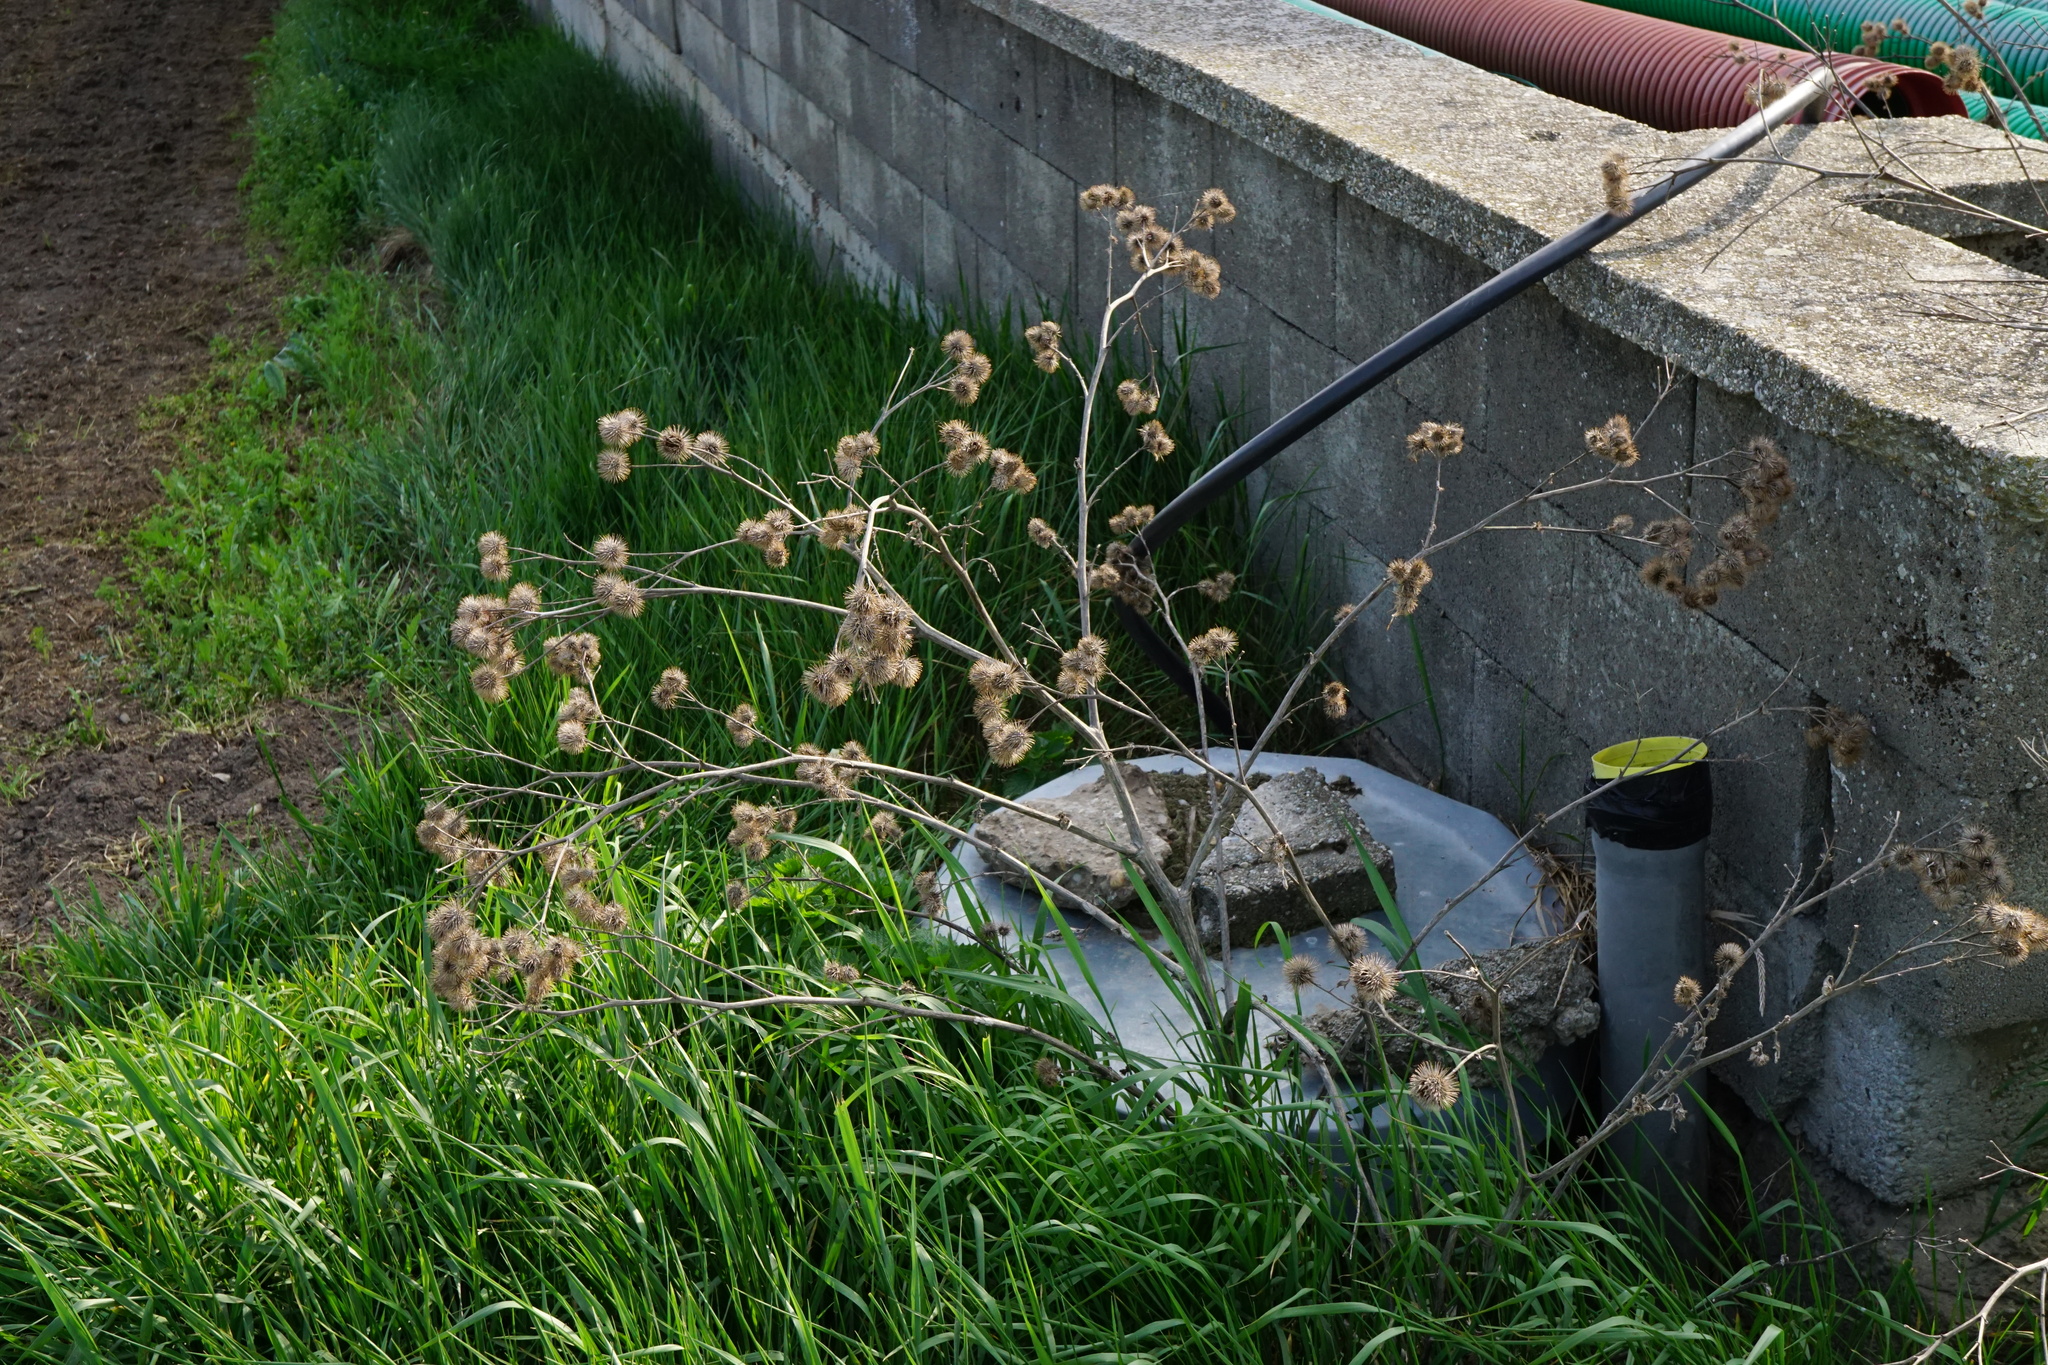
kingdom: Plantae
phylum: Tracheophyta
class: Magnoliopsida
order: Asterales
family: Asteraceae
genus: Arctium
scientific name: Arctium lappa
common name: Greater burdock
